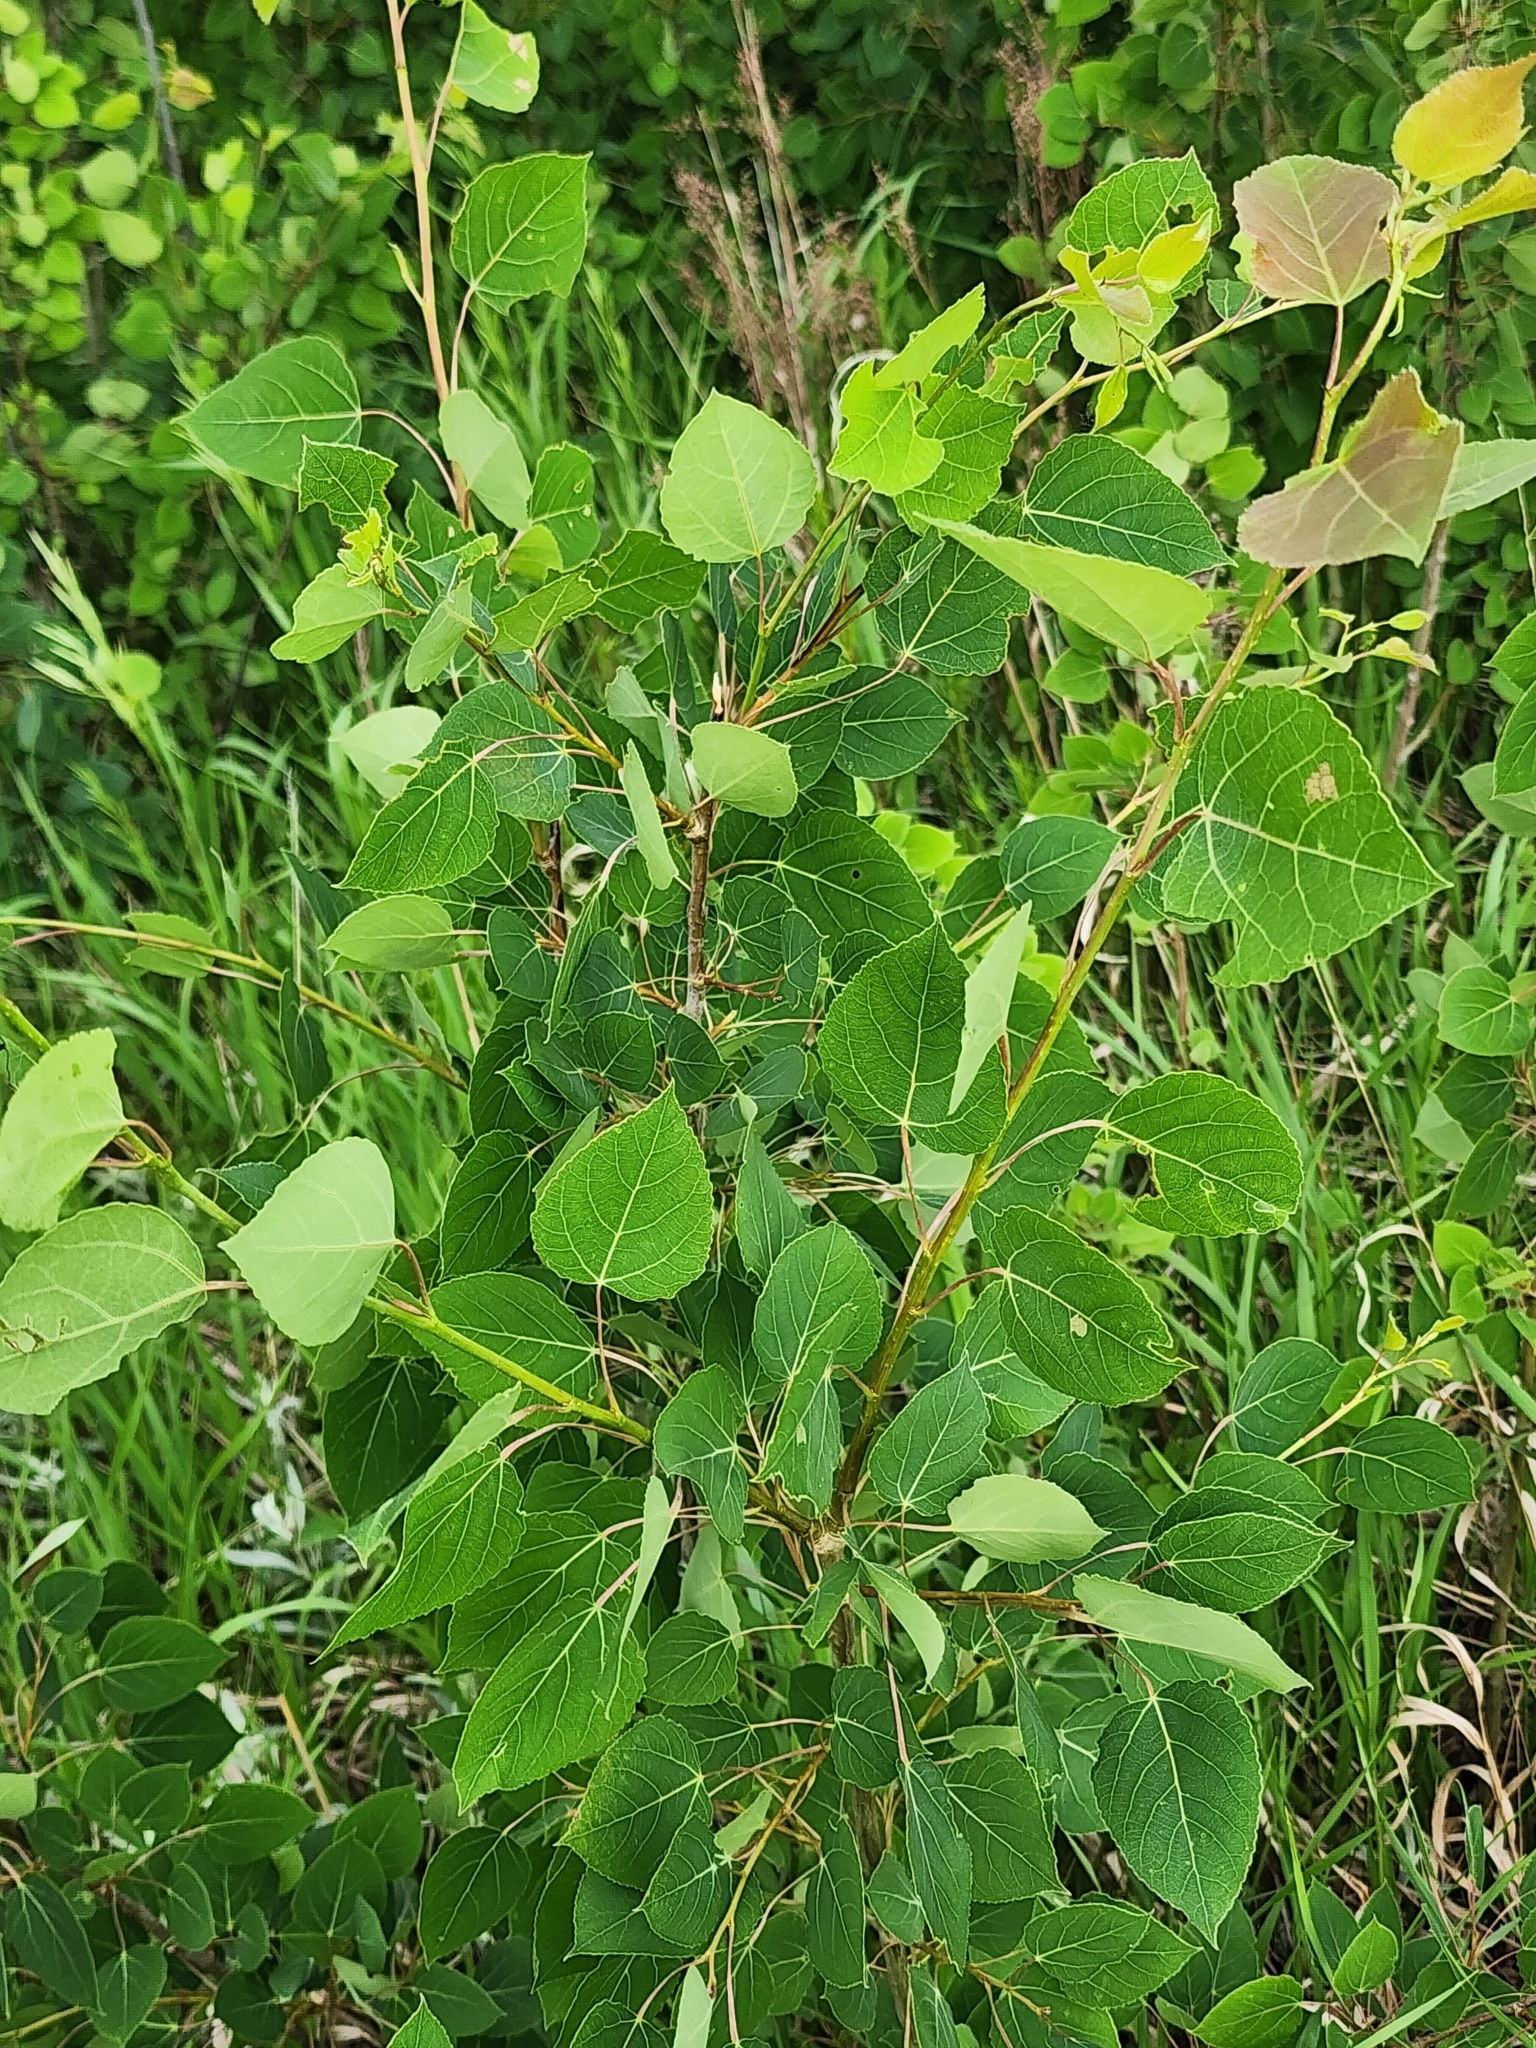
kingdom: Plantae
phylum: Tracheophyta
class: Magnoliopsida
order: Malpighiales
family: Salicaceae
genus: Populus
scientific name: Populus tremuloides
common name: Quaking aspen
